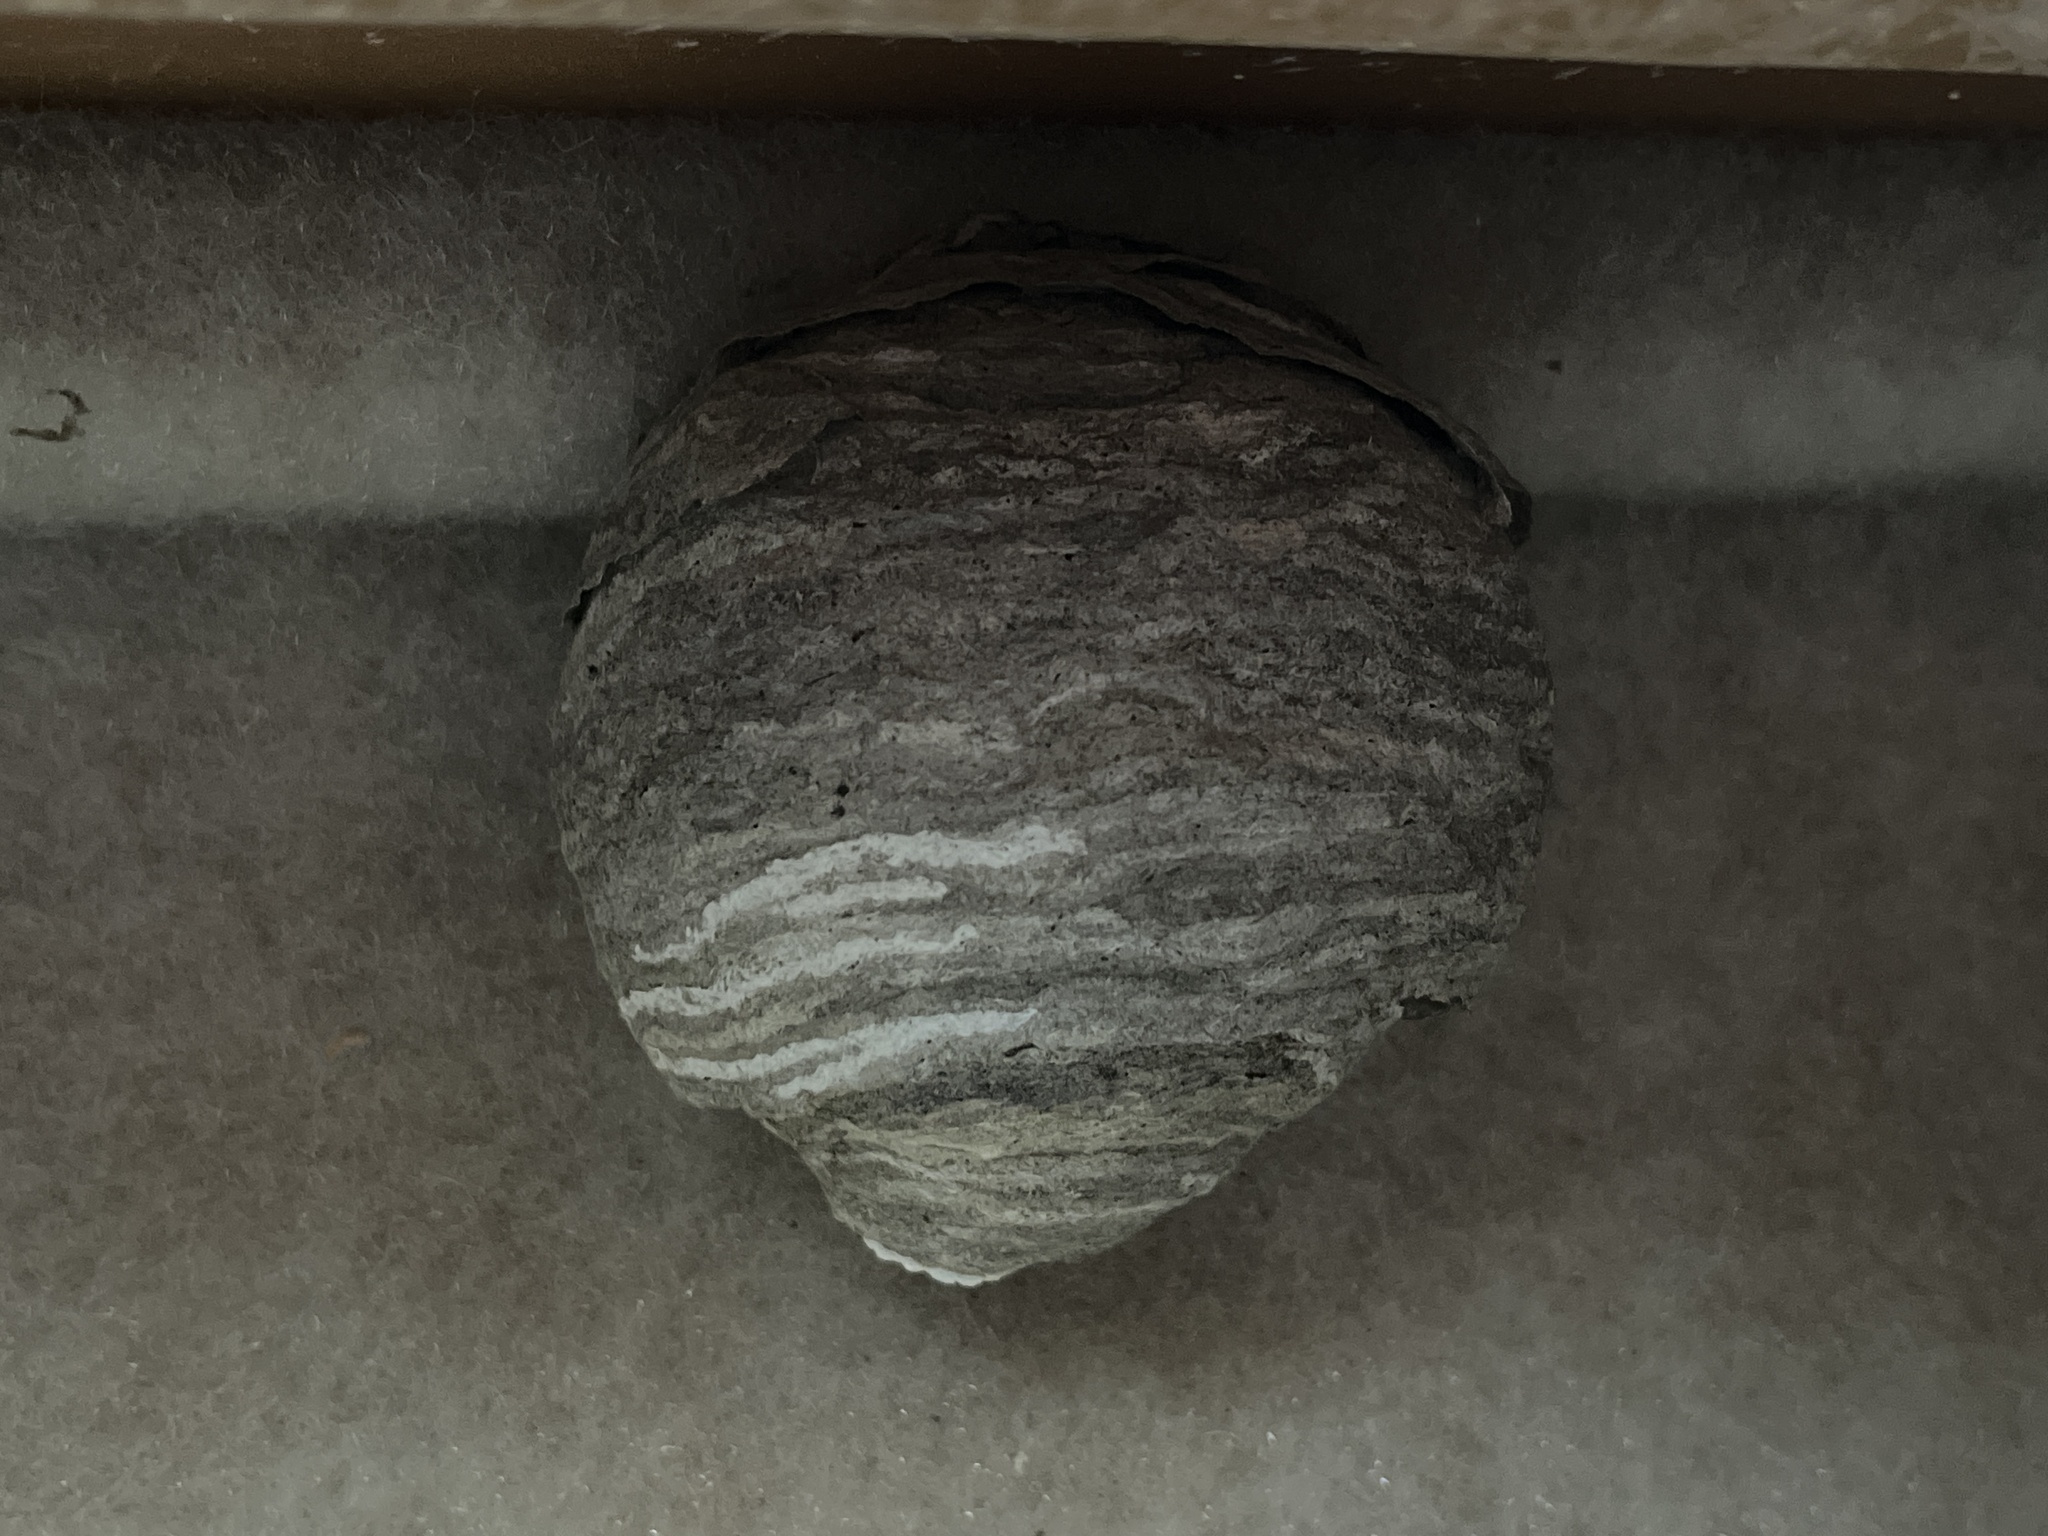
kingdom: Animalia
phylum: Arthropoda
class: Insecta
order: Hymenoptera
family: Vespidae
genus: Dolichovespula
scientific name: Dolichovespula
